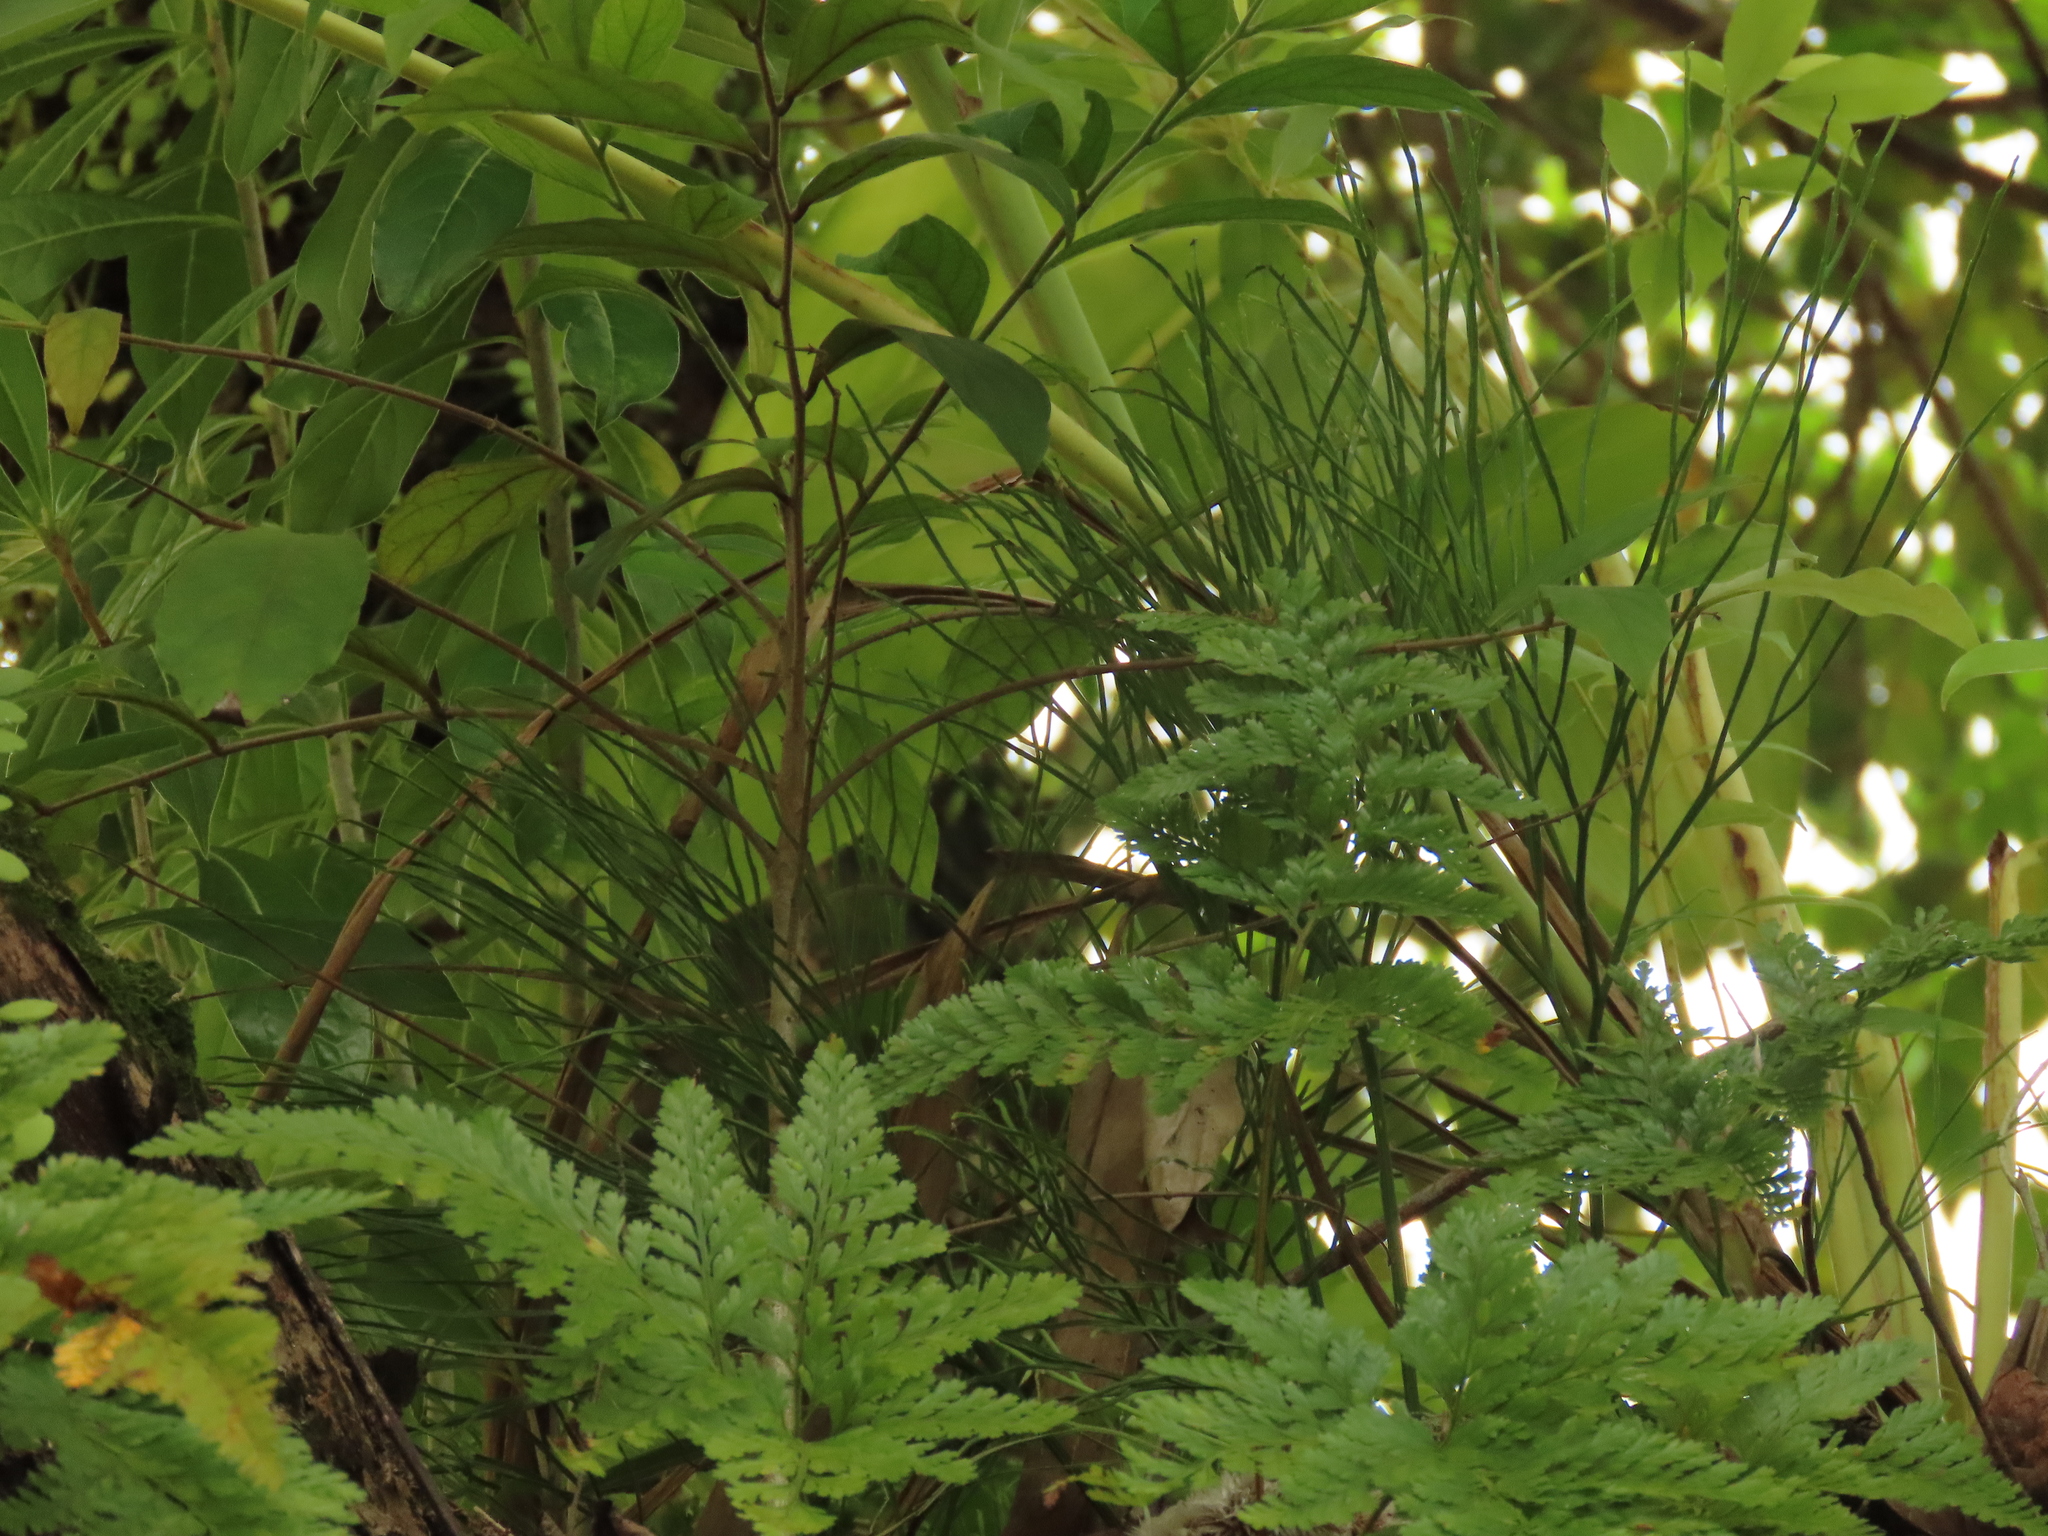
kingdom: Plantae
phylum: Tracheophyta
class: Polypodiopsida
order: Psilotales
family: Psilotaceae
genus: Psilotum
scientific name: Psilotum nudum
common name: Skeleton fork fern
